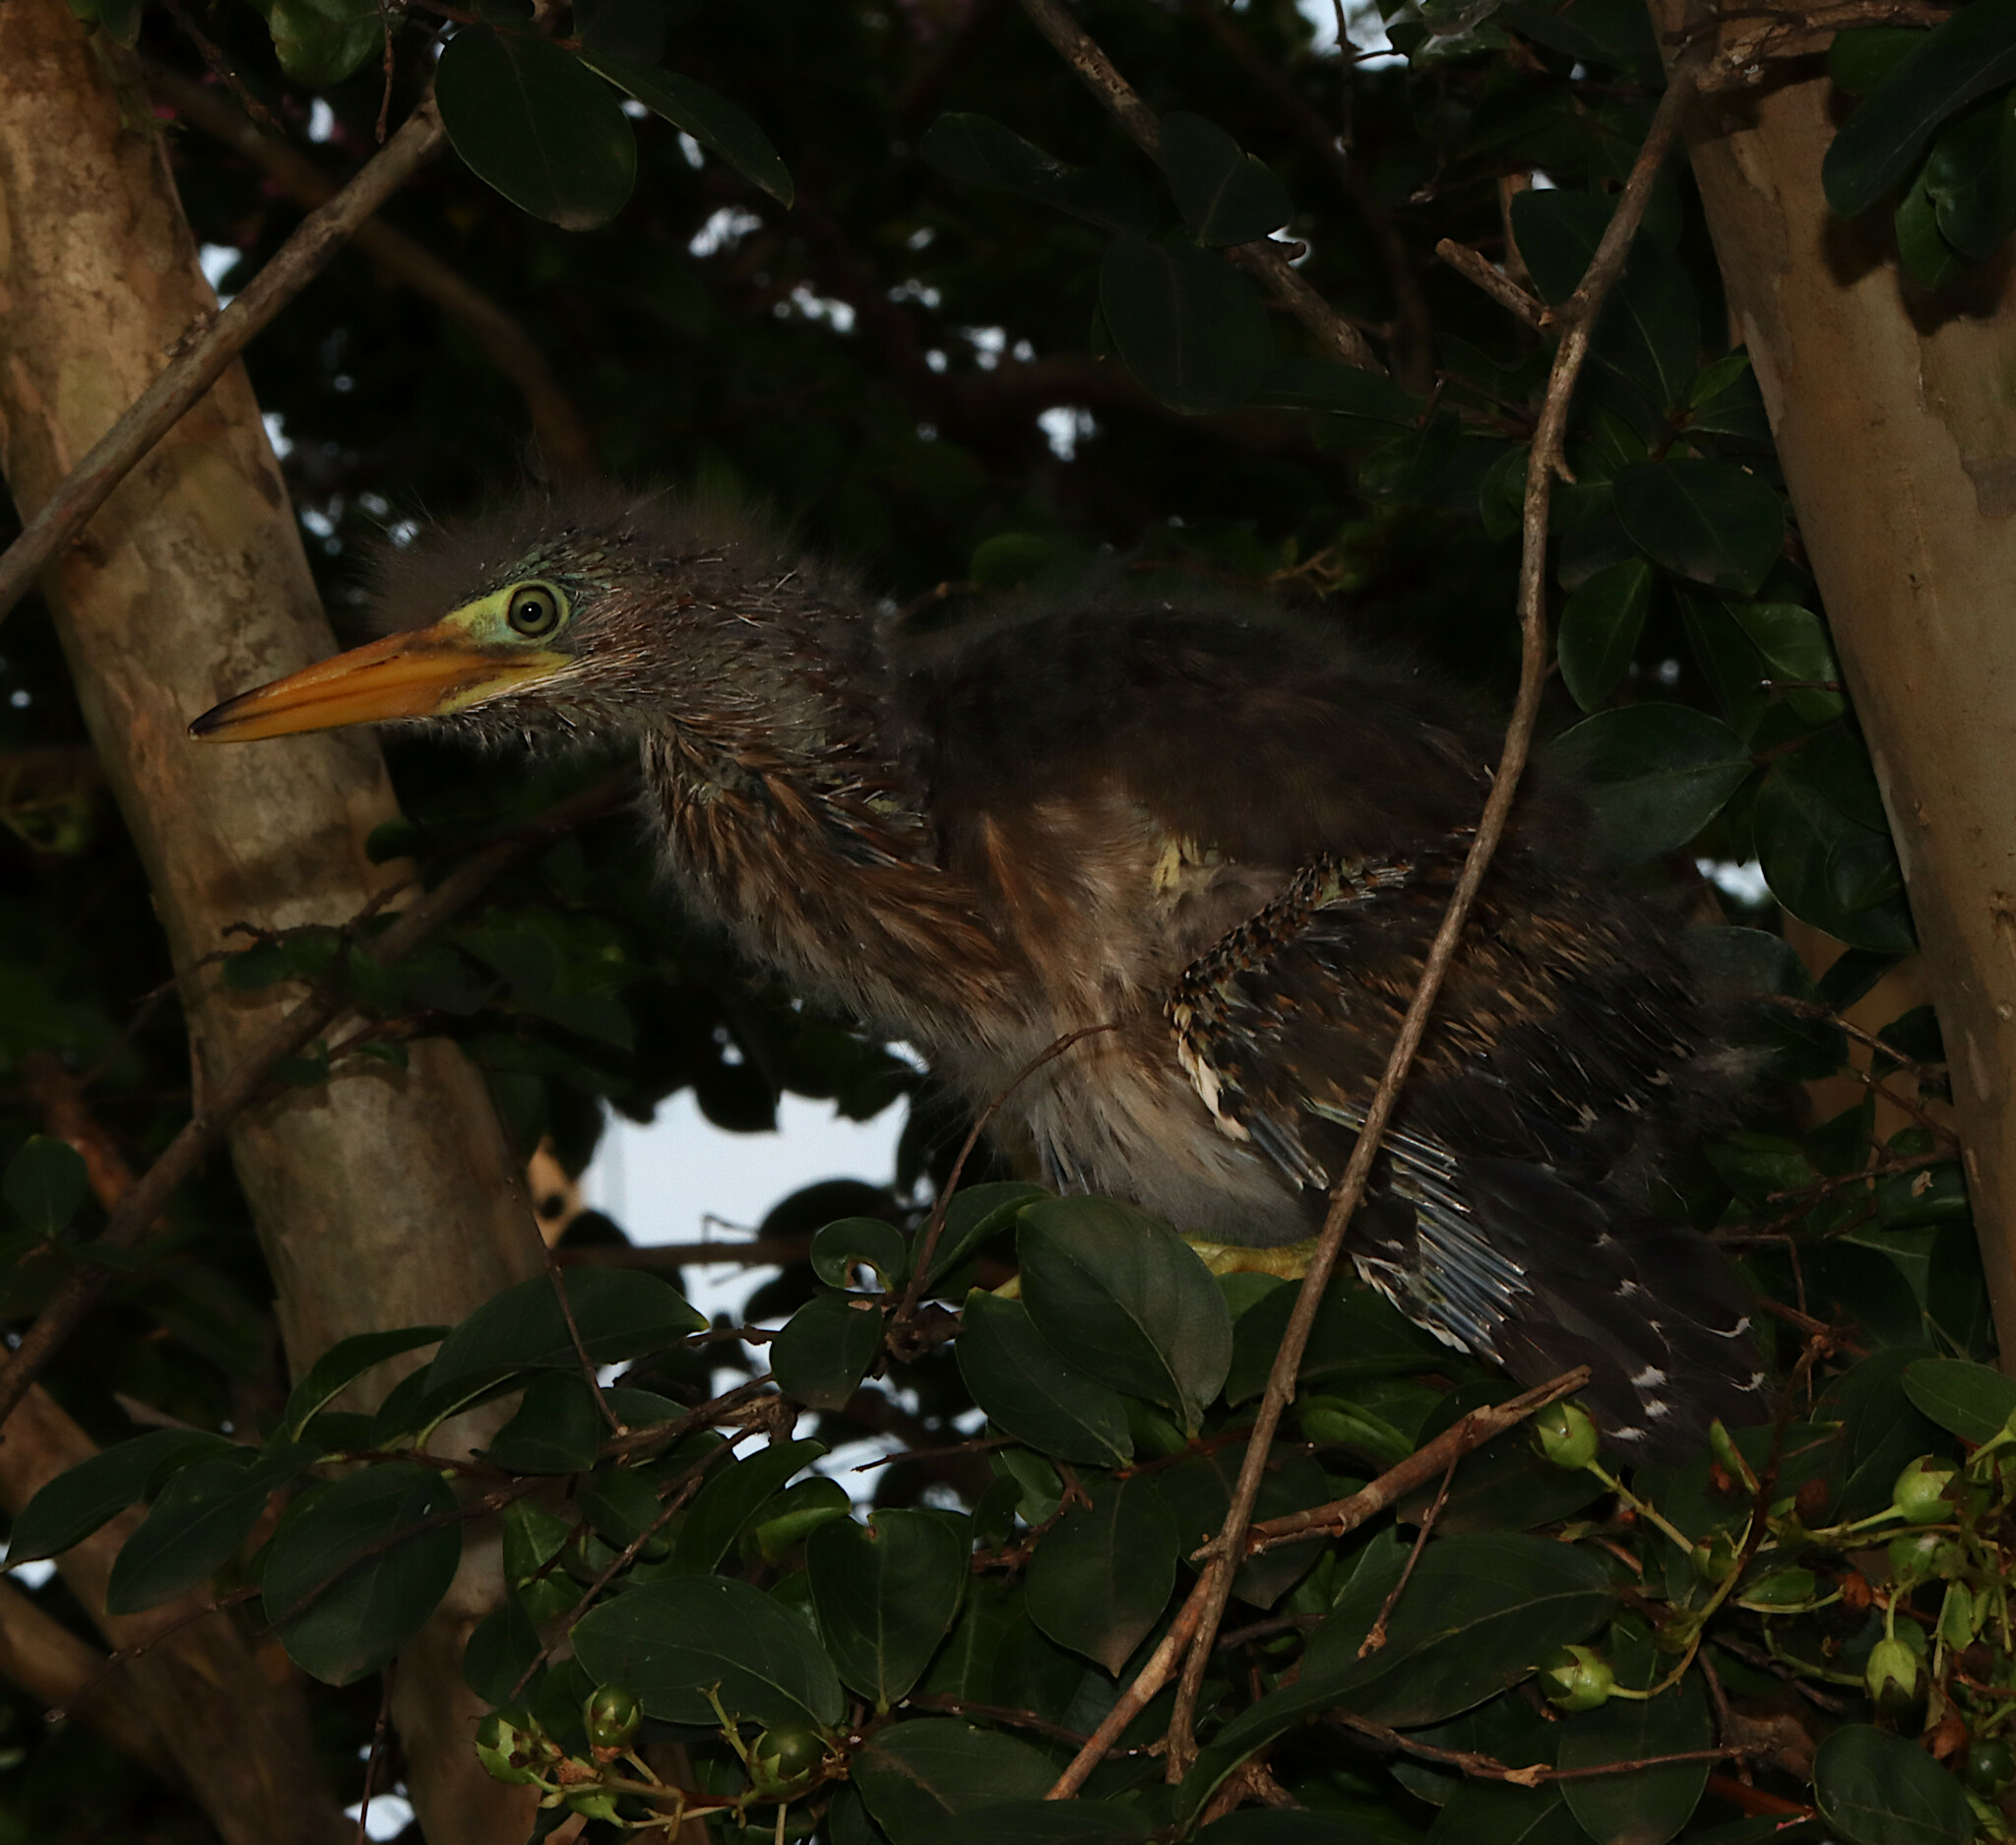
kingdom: Animalia
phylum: Chordata
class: Aves
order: Pelecaniformes
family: Ardeidae
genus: Butorides
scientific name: Butorides virescens
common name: Green heron
